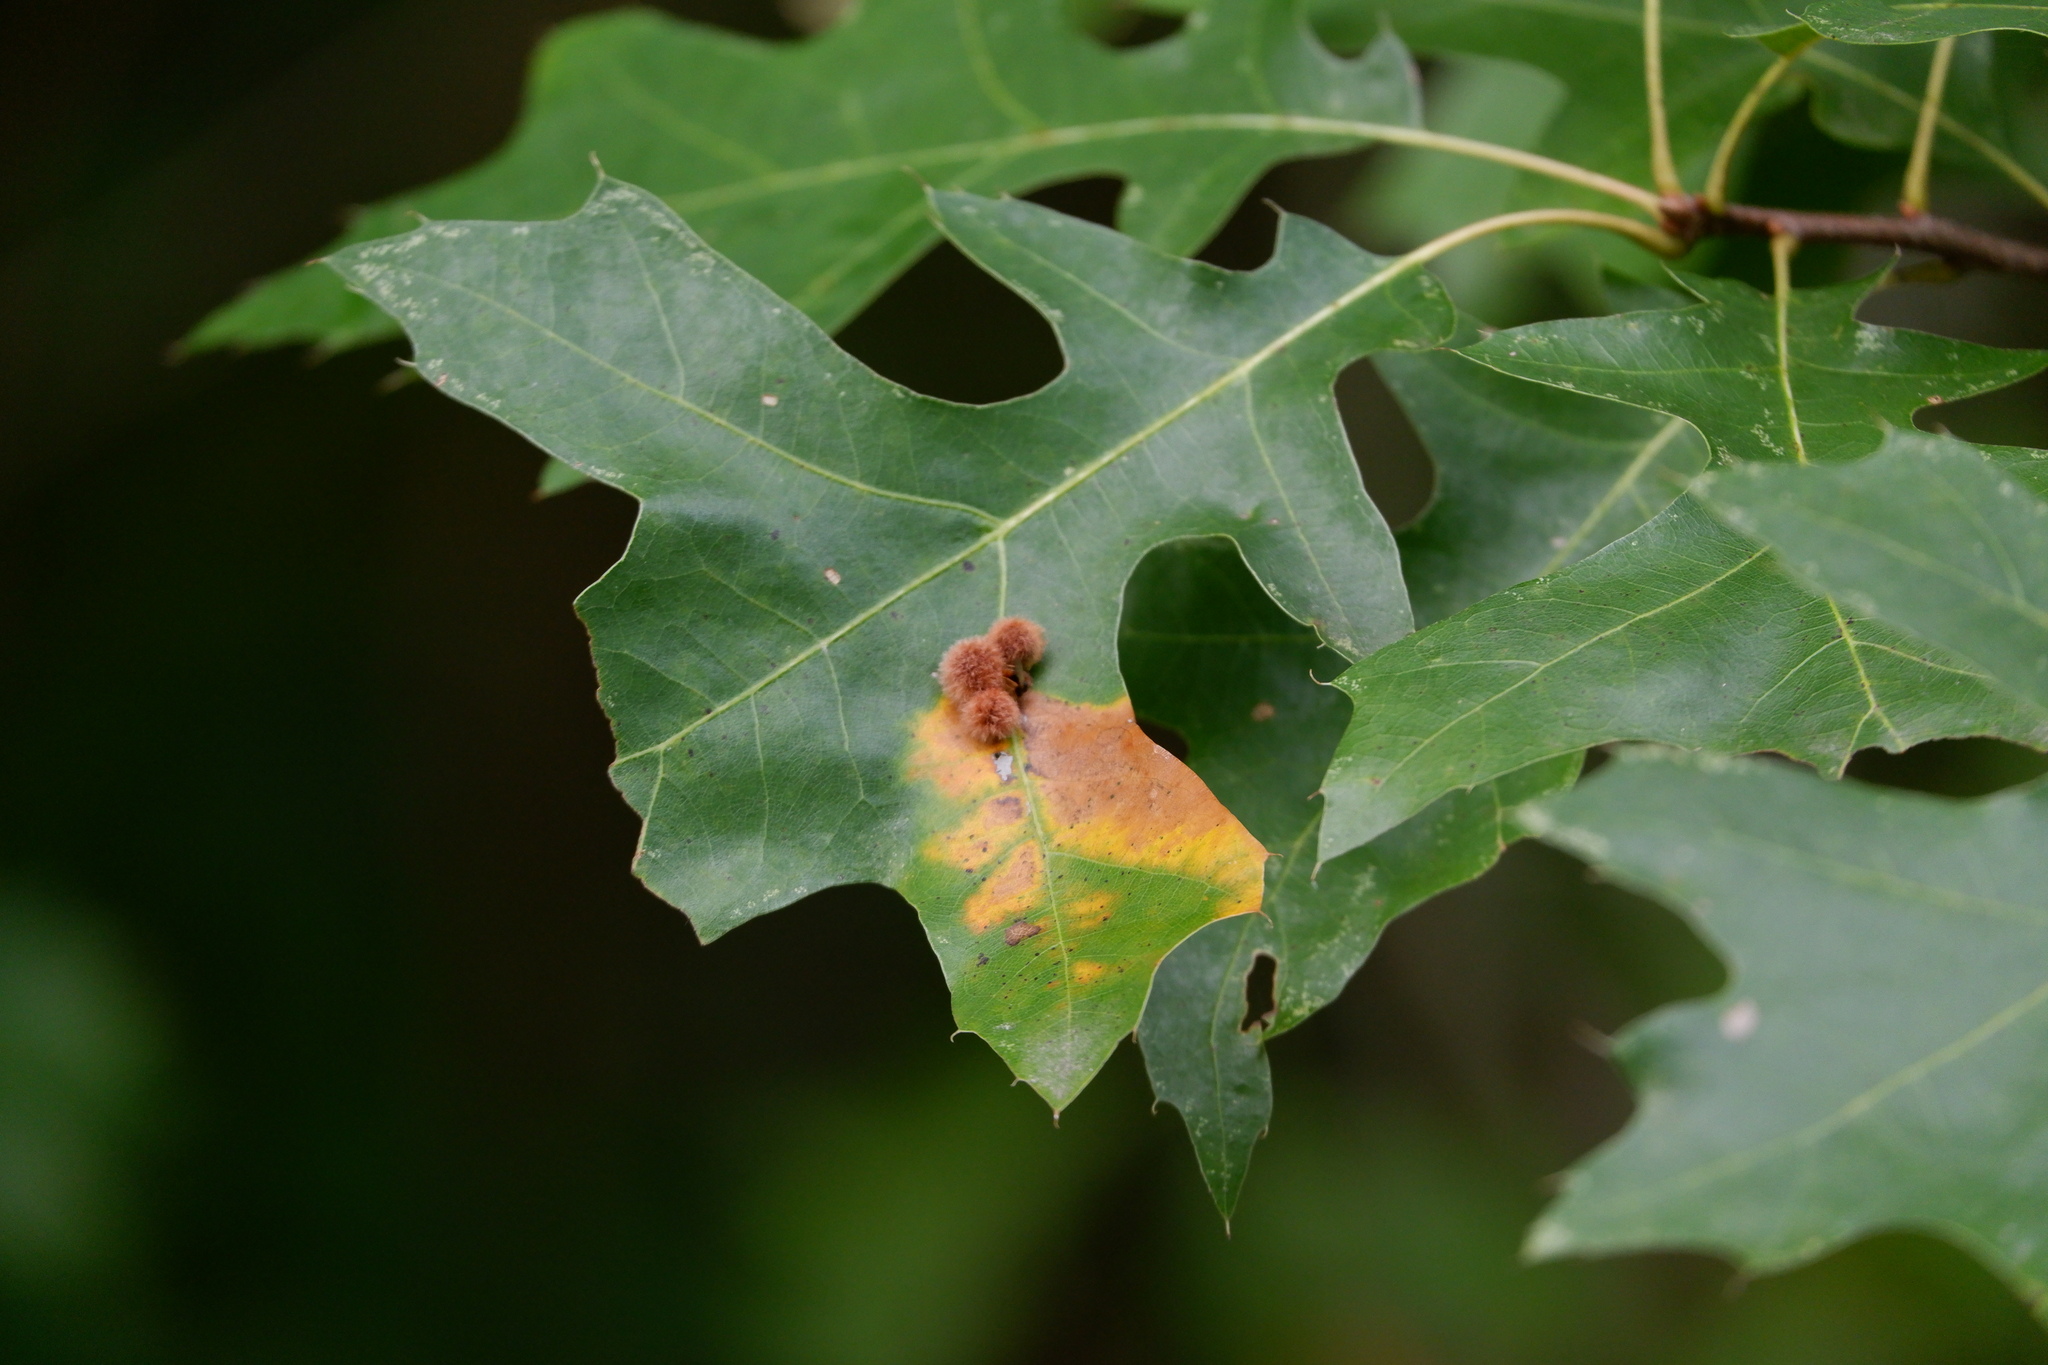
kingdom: Animalia
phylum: Arthropoda
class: Insecta
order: Hymenoptera
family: Cynipidae
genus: Callirhytis
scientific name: Callirhytis
